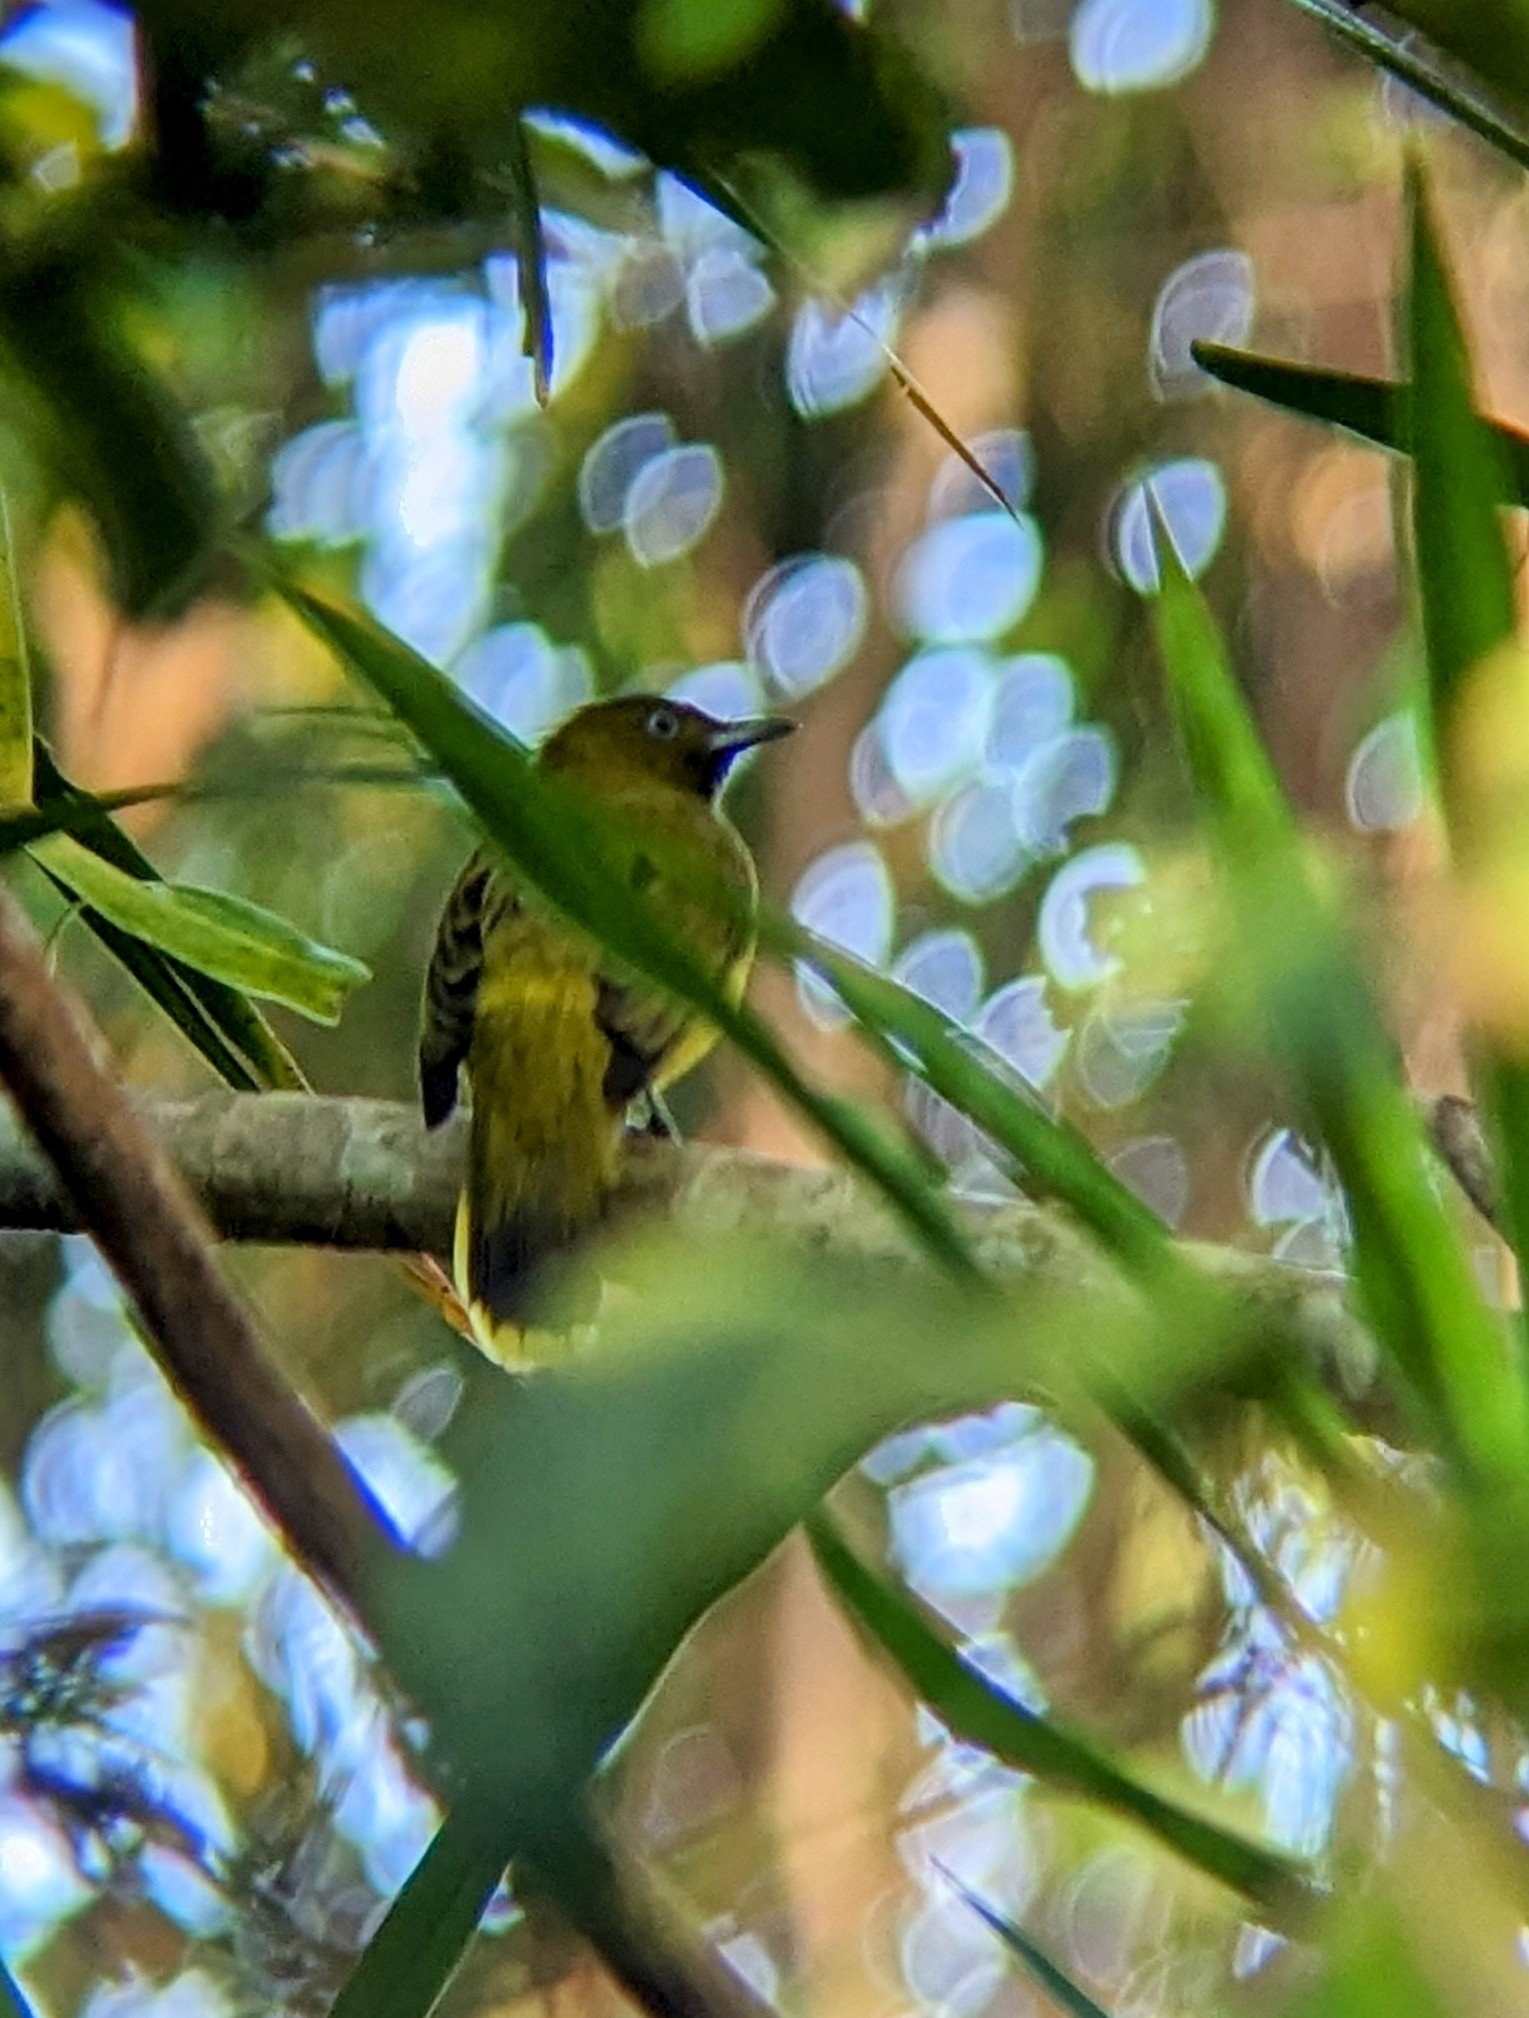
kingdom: Animalia
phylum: Chordata
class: Aves
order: Passeriformes
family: Pycnonotidae
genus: Microtarsus
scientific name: Microtarsus
